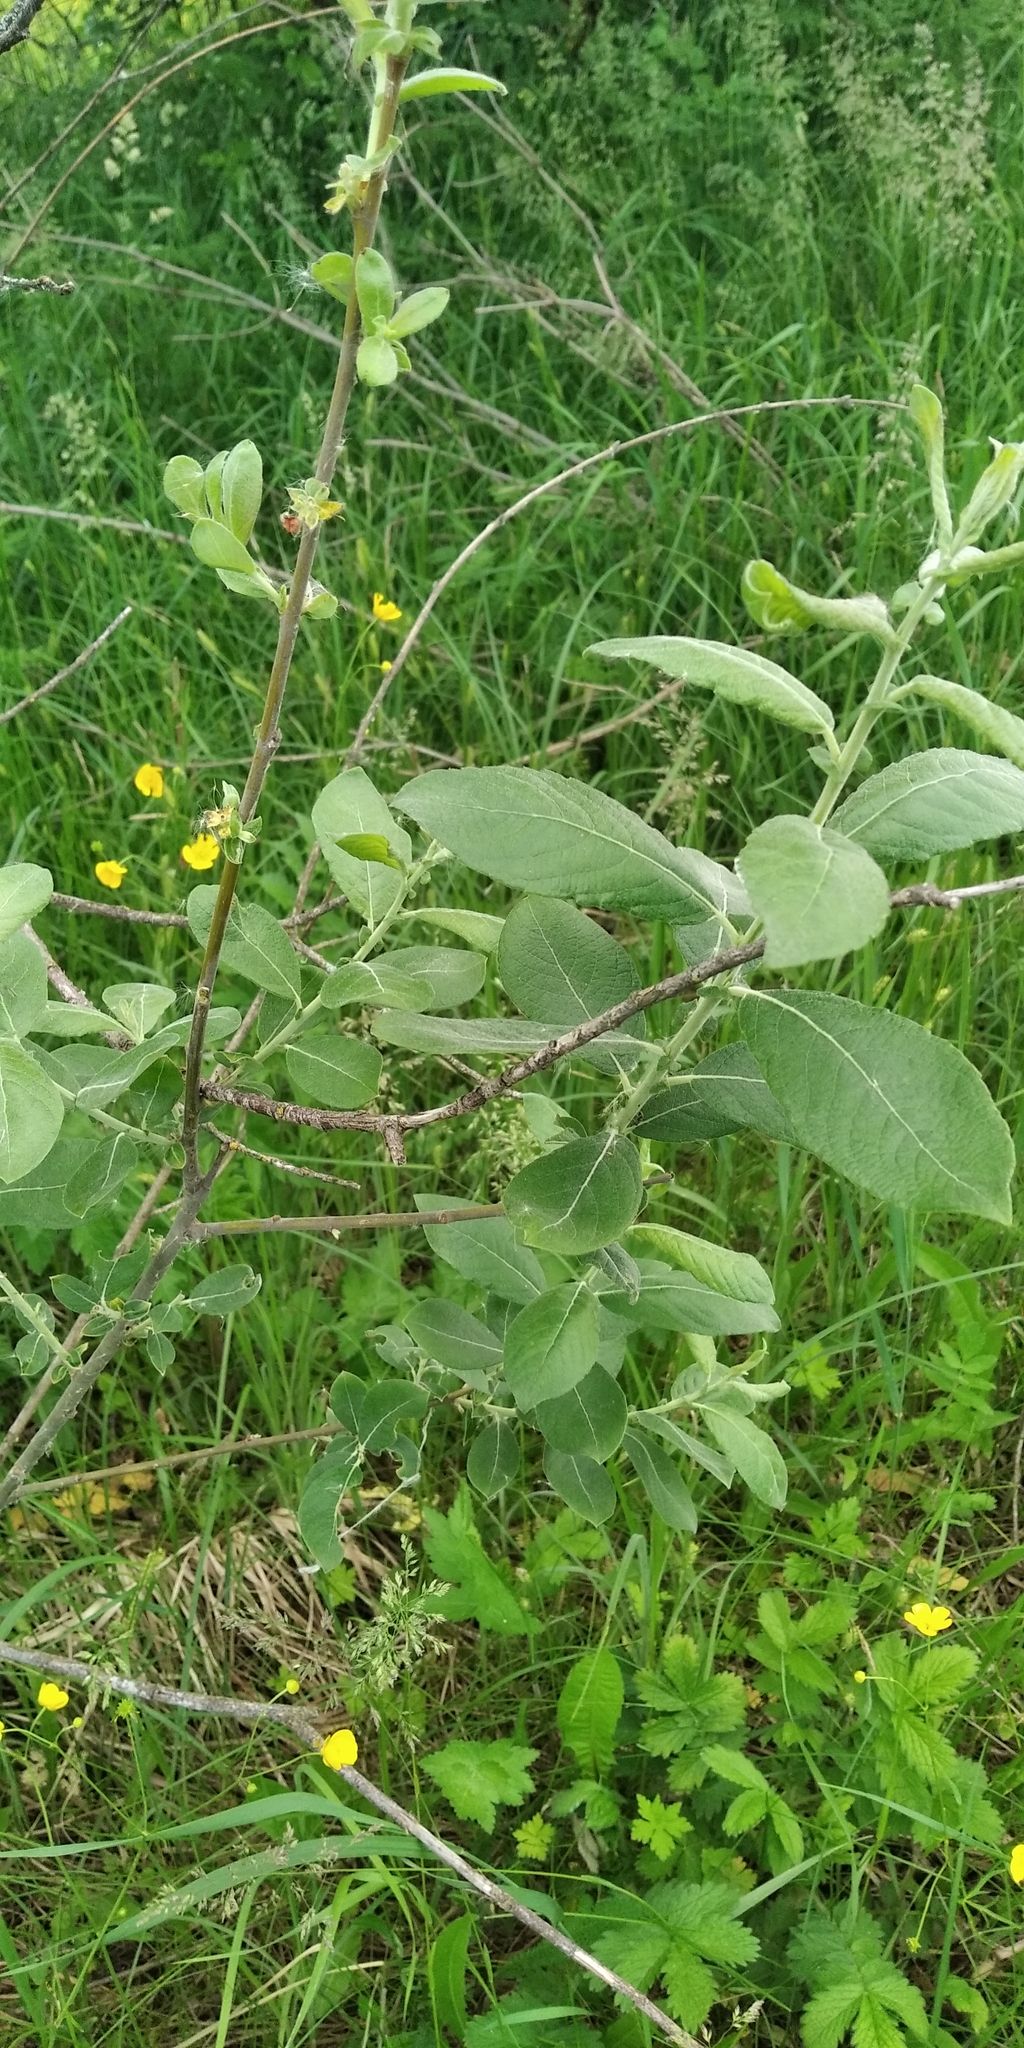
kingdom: Plantae
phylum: Tracheophyta
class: Magnoliopsida
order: Malpighiales
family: Salicaceae
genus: Salix
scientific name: Salix cinerea
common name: Common sallow
